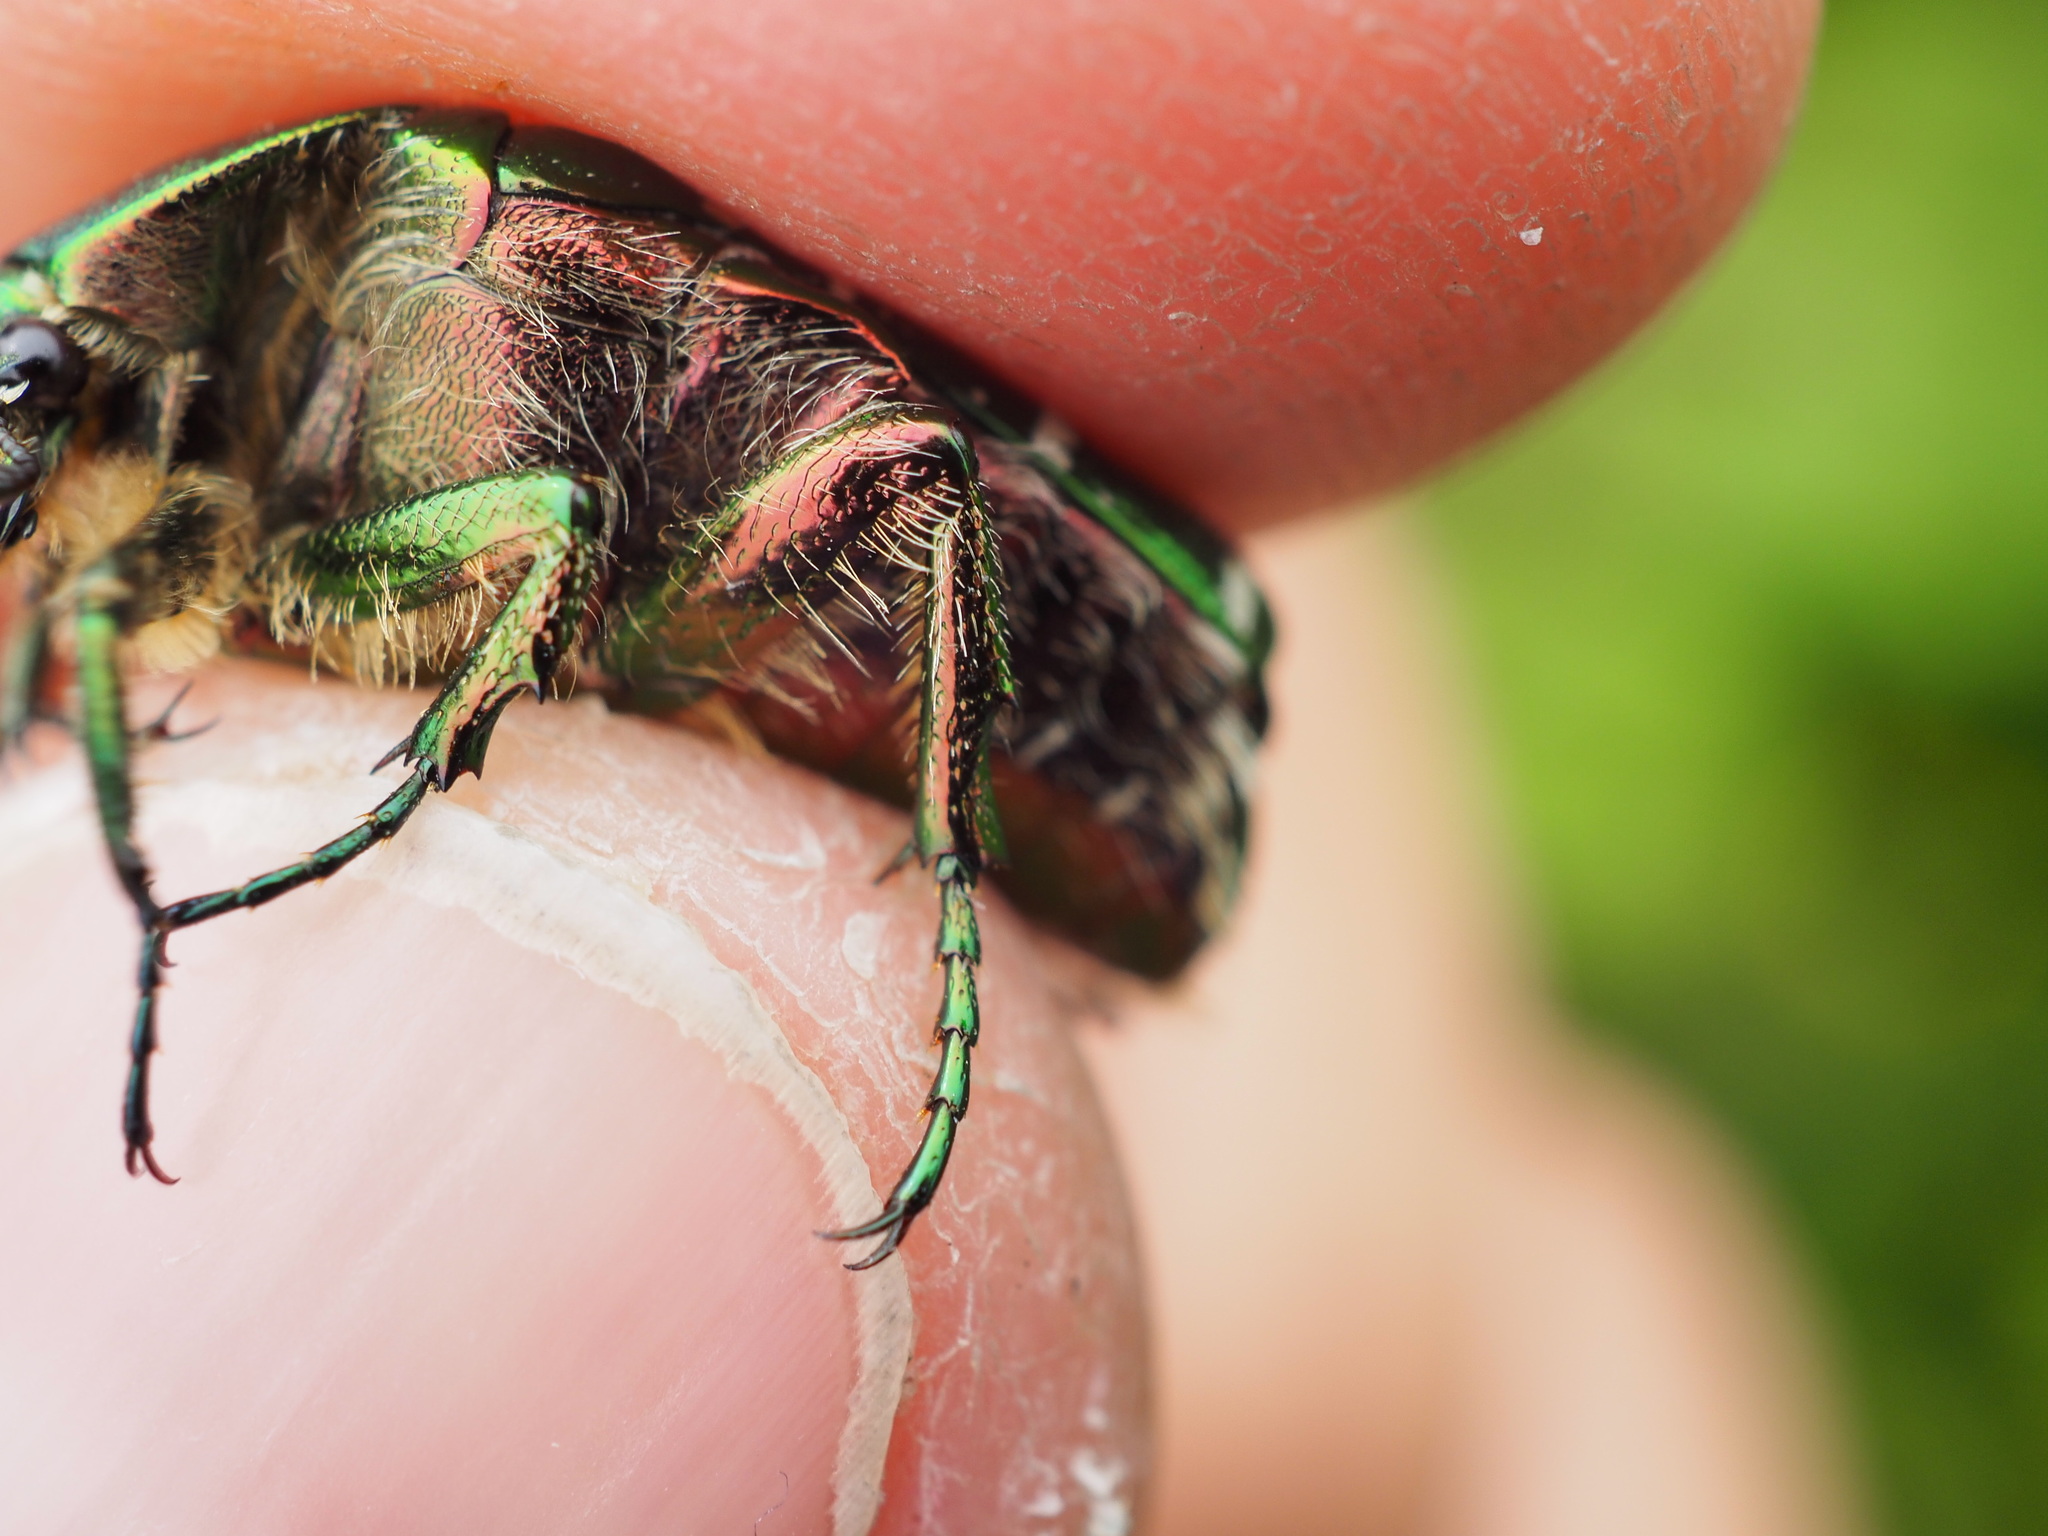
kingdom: Animalia
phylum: Arthropoda
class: Insecta
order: Coleoptera
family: Scarabaeidae
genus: Cetonia
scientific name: Cetonia aurata
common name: Rose chafer
